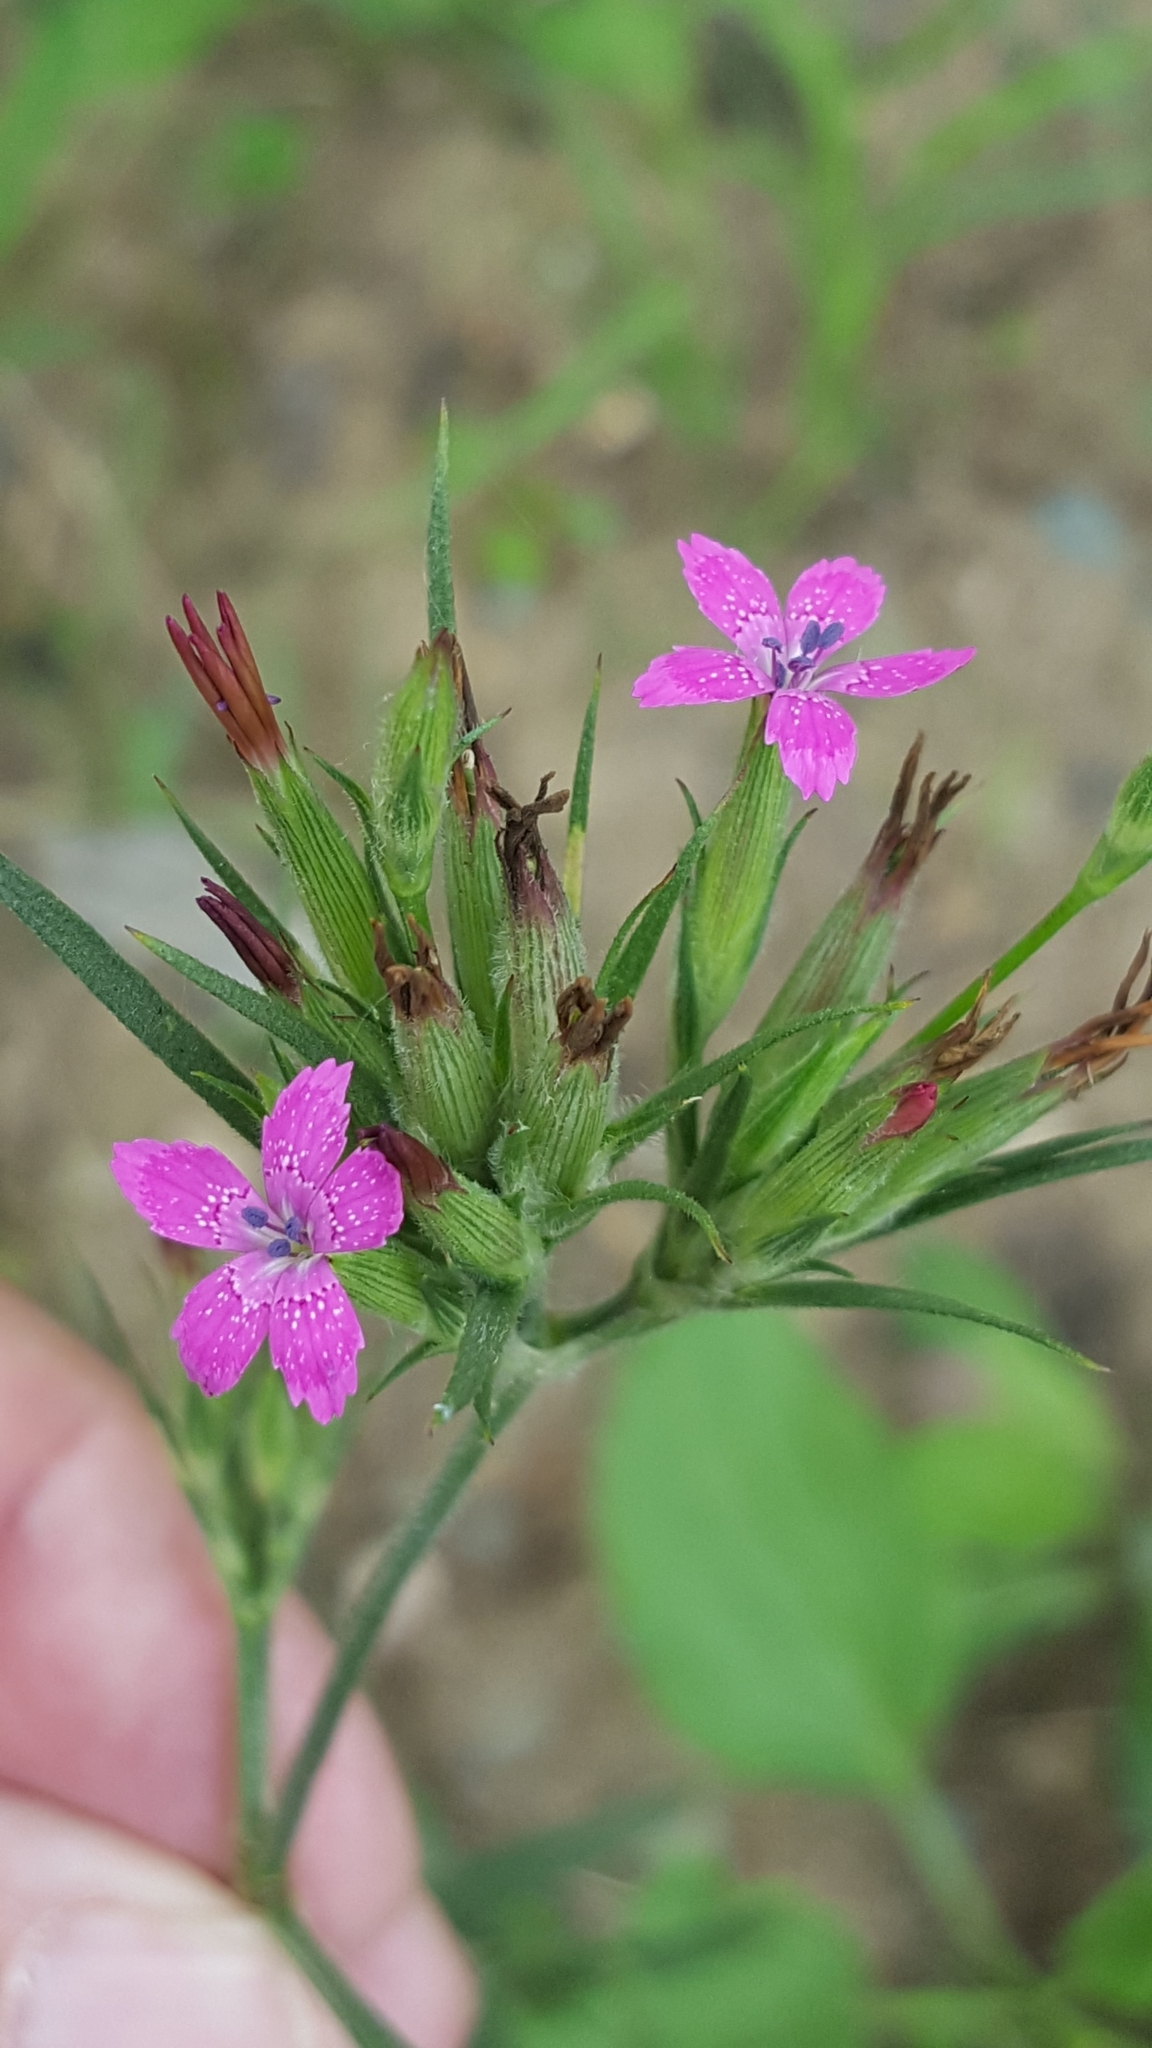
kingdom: Plantae
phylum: Tracheophyta
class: Magnoliopsida
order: Caryophyllales
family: Caryophyllaceae
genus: Dianthus
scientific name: Dianthus armeria
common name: Deptford pink
